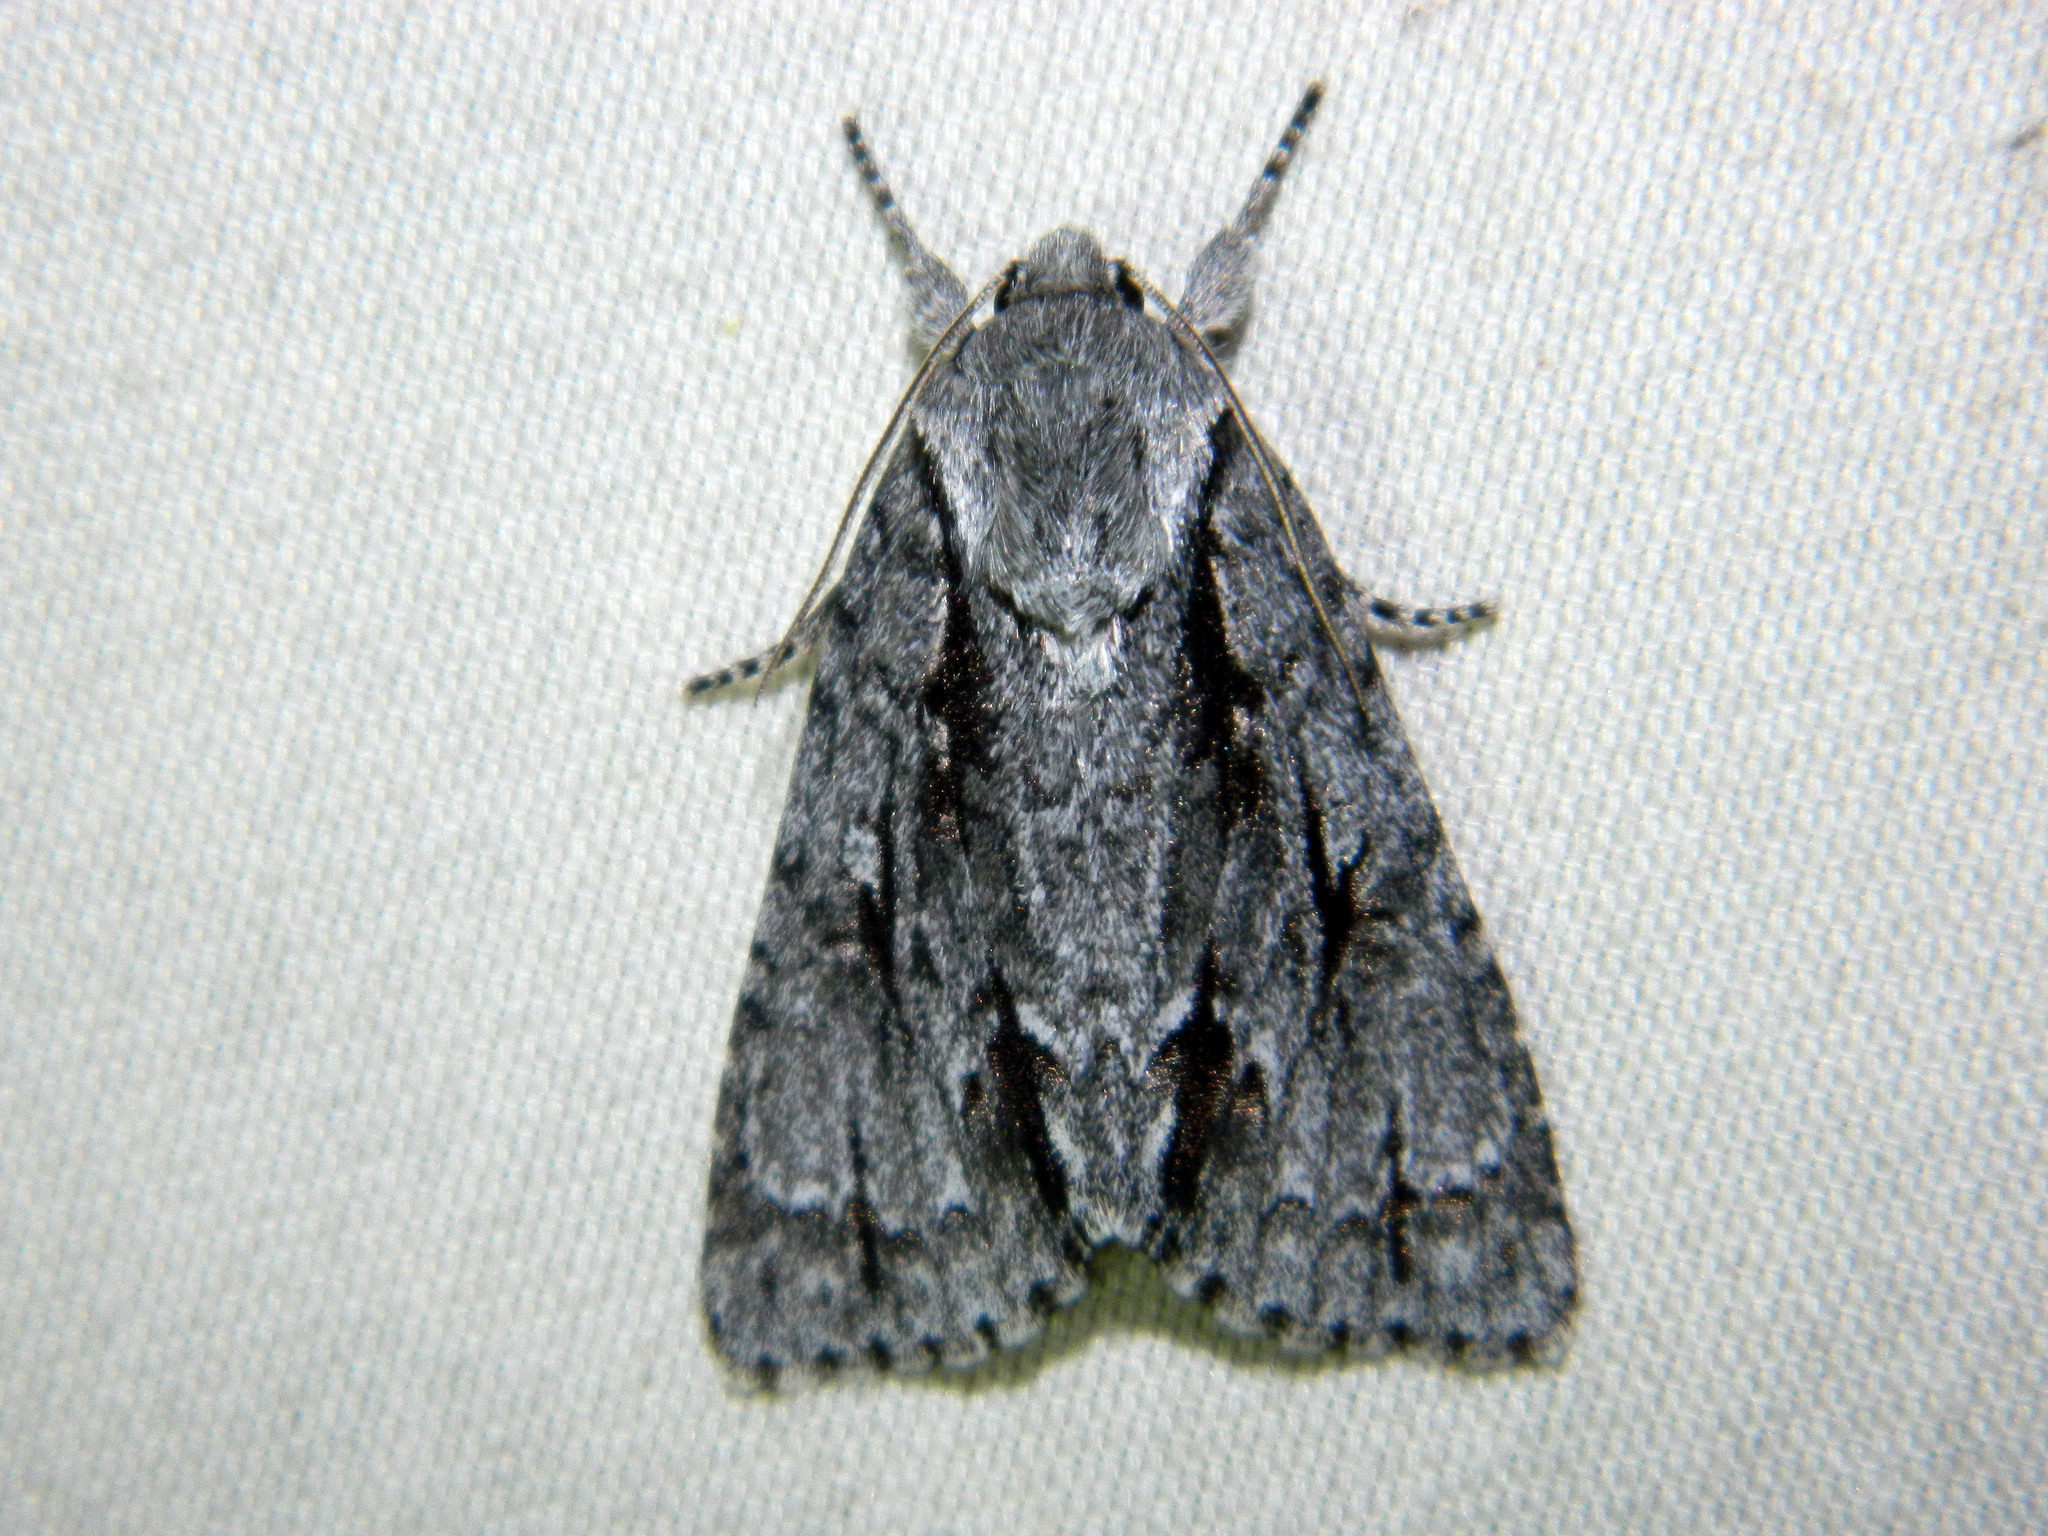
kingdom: Animalia
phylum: Arthropoda
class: Insecta
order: Lepidoptera
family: Noctuidae
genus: Acronicta
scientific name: Acronicta hasta
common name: Cherry dagger
